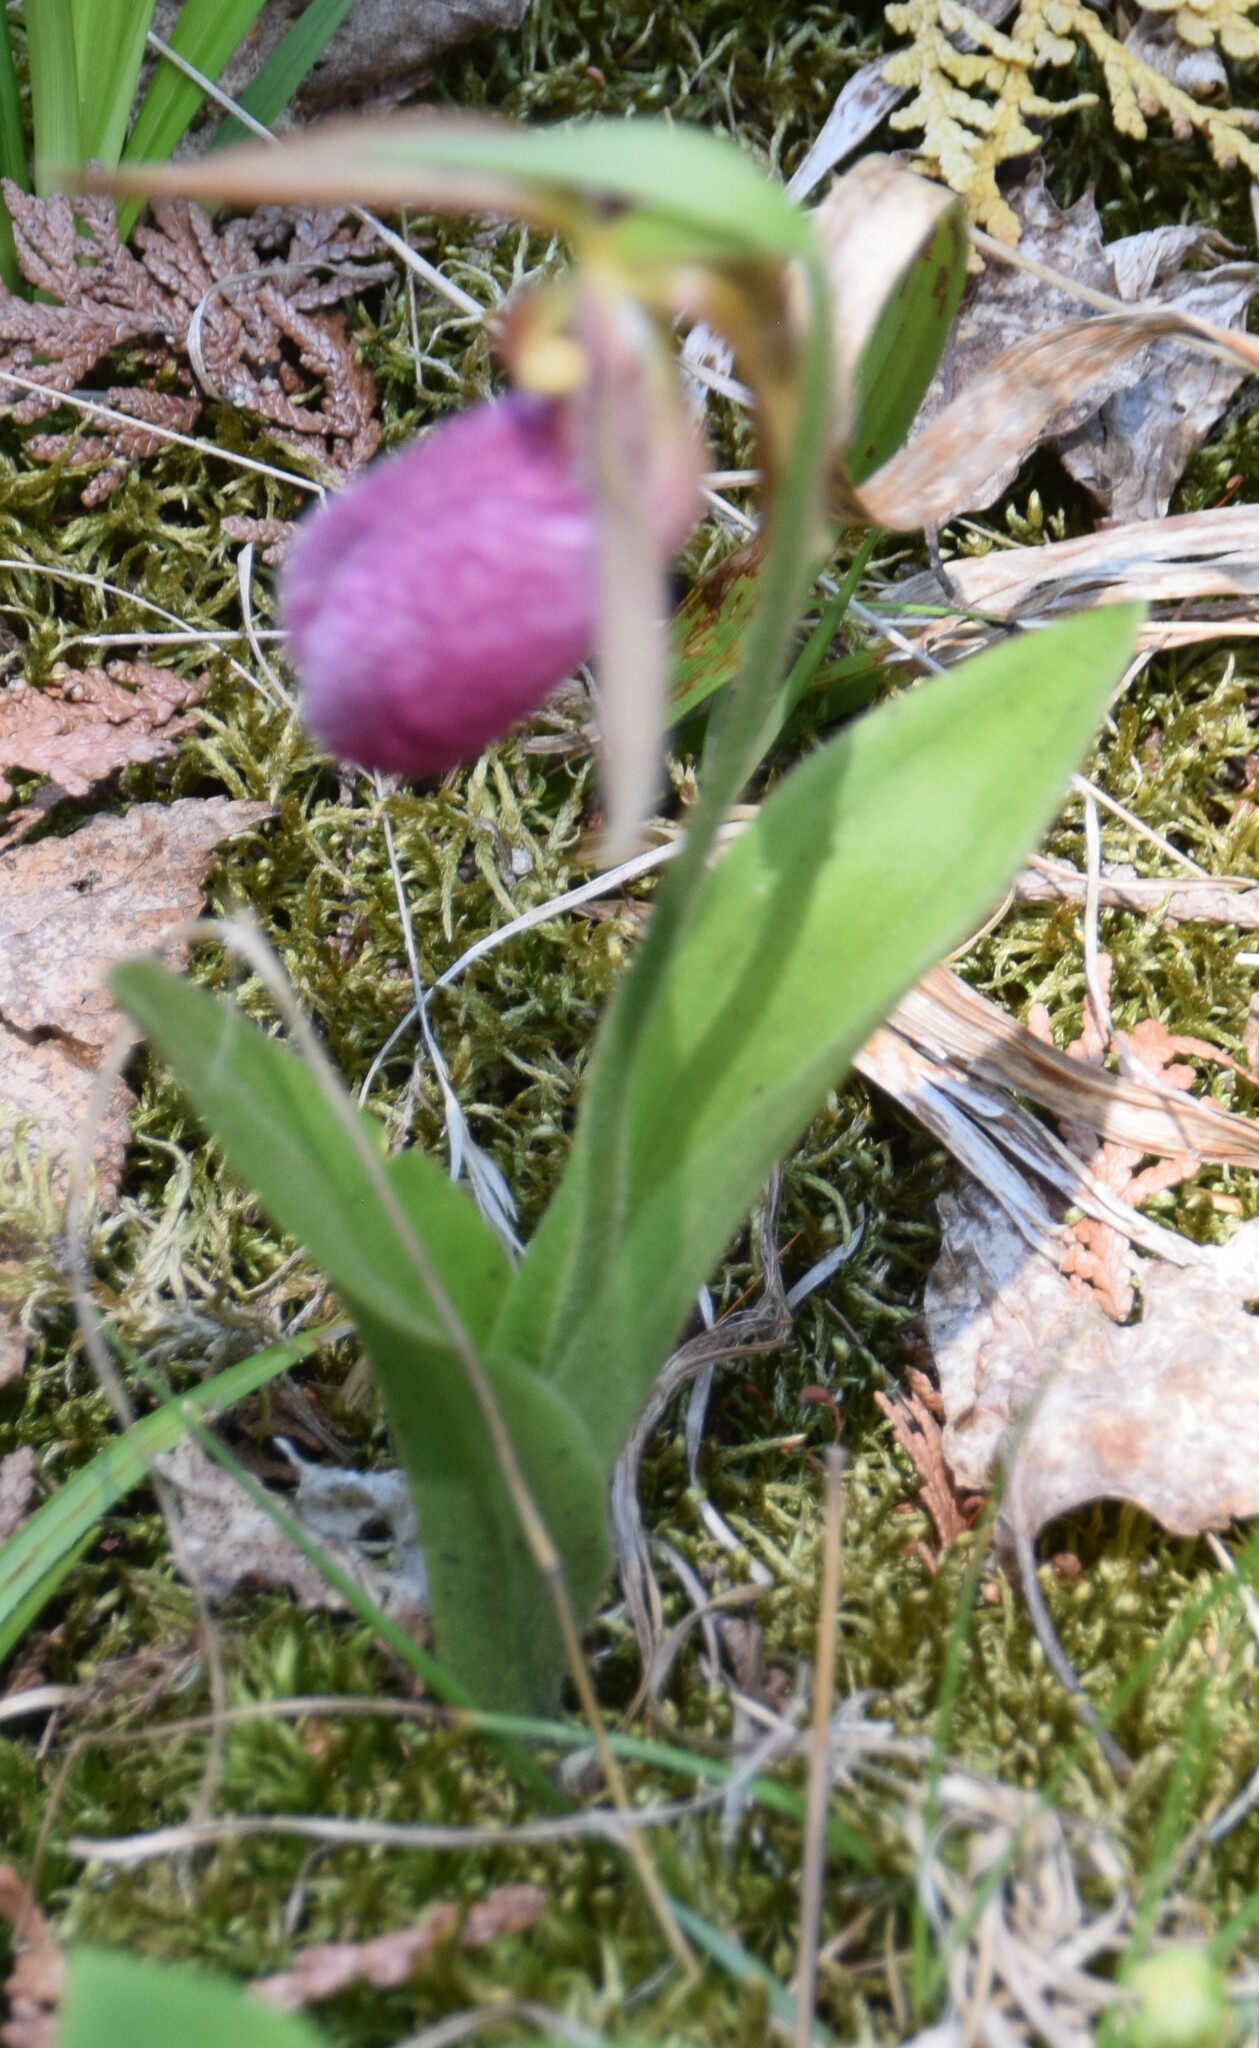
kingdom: Plantae
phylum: Tracheophyta
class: Liliopsida
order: Asparagales
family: Orchidaceae
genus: Cypripedium
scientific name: Cypripedium acaule
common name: Pink lady's-slipper
